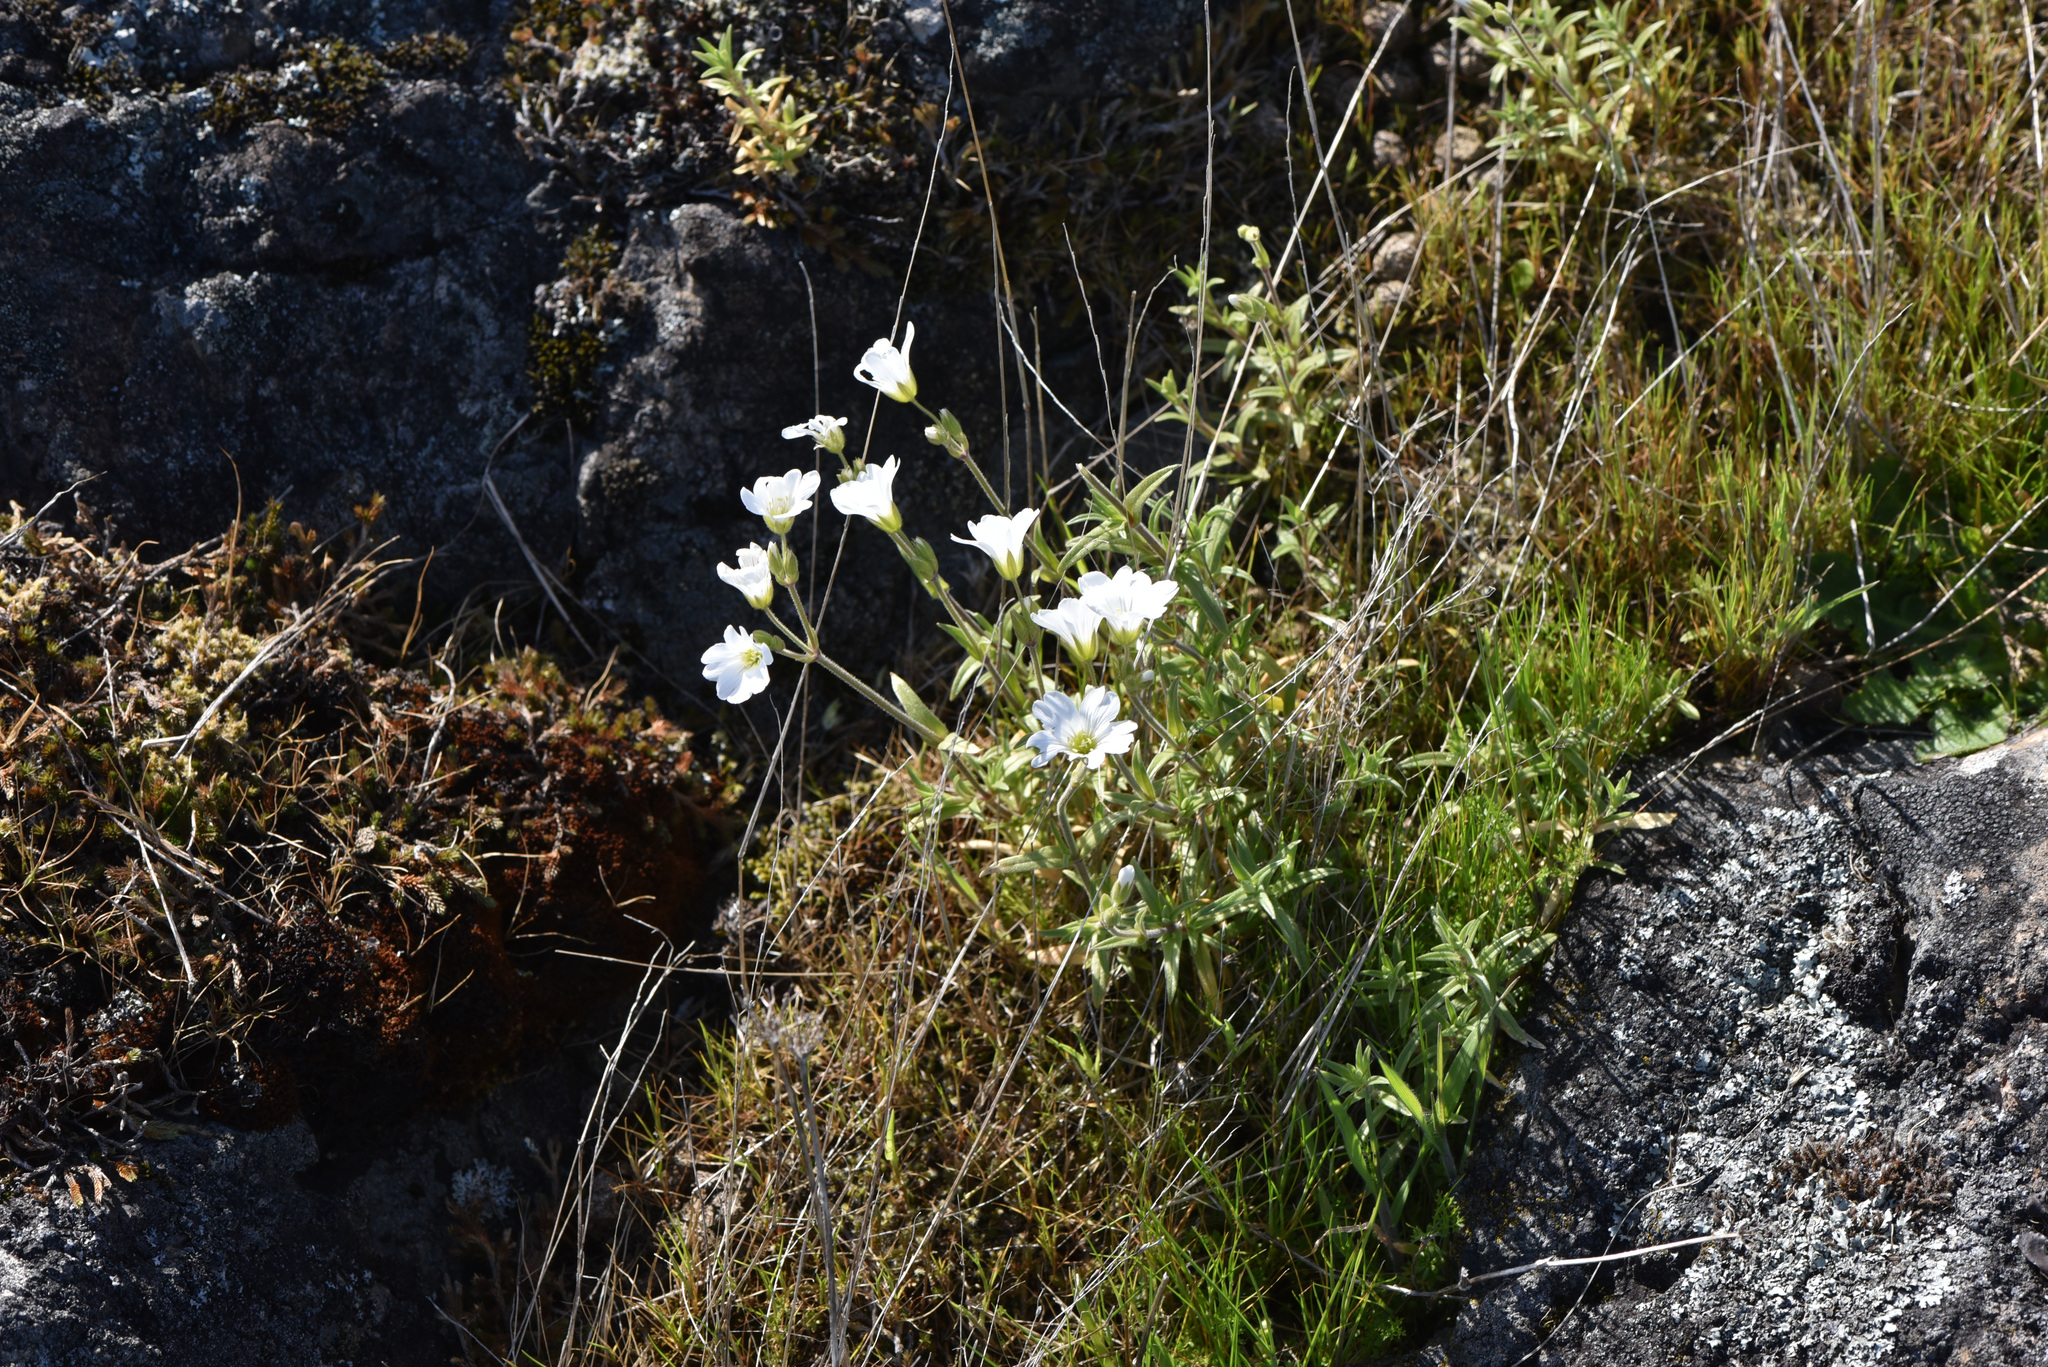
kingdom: Plantae
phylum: Tracheophyta
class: Magnoliopsida
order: Caryophyllales
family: Caryophyllaceae
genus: Cerastium
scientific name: Cerastium arvense
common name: Field mouse-ear
